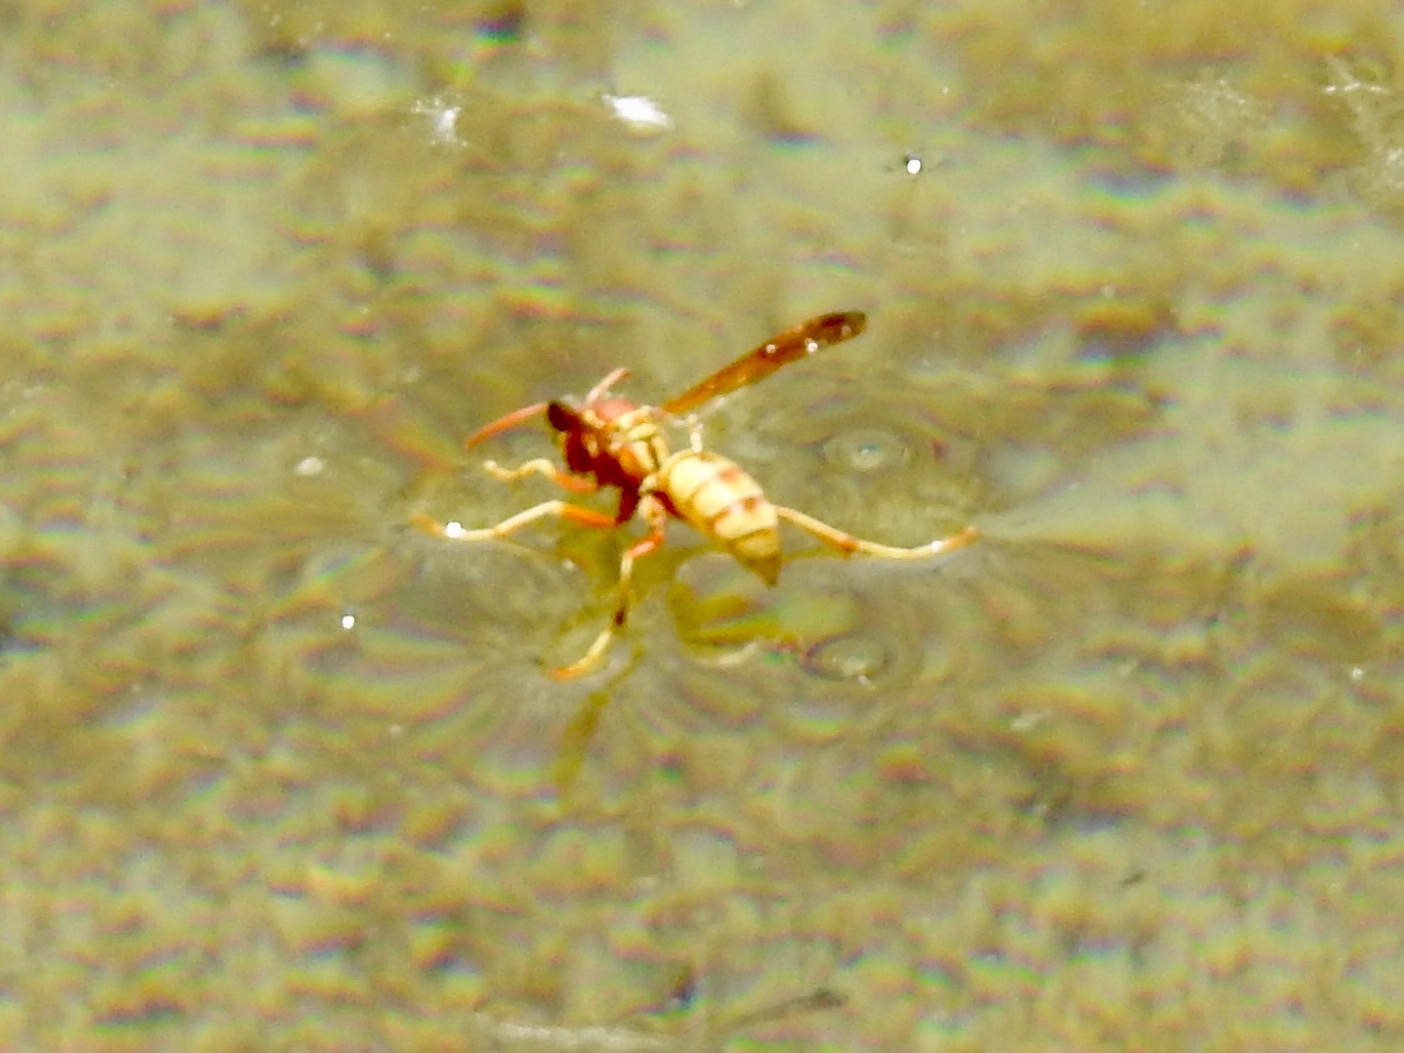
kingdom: Animalia
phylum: Arthropoda
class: Insecta
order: Hymenoptera
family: Eumenidae
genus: Polistes
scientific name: Polistes aurifer
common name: Paper wasp
